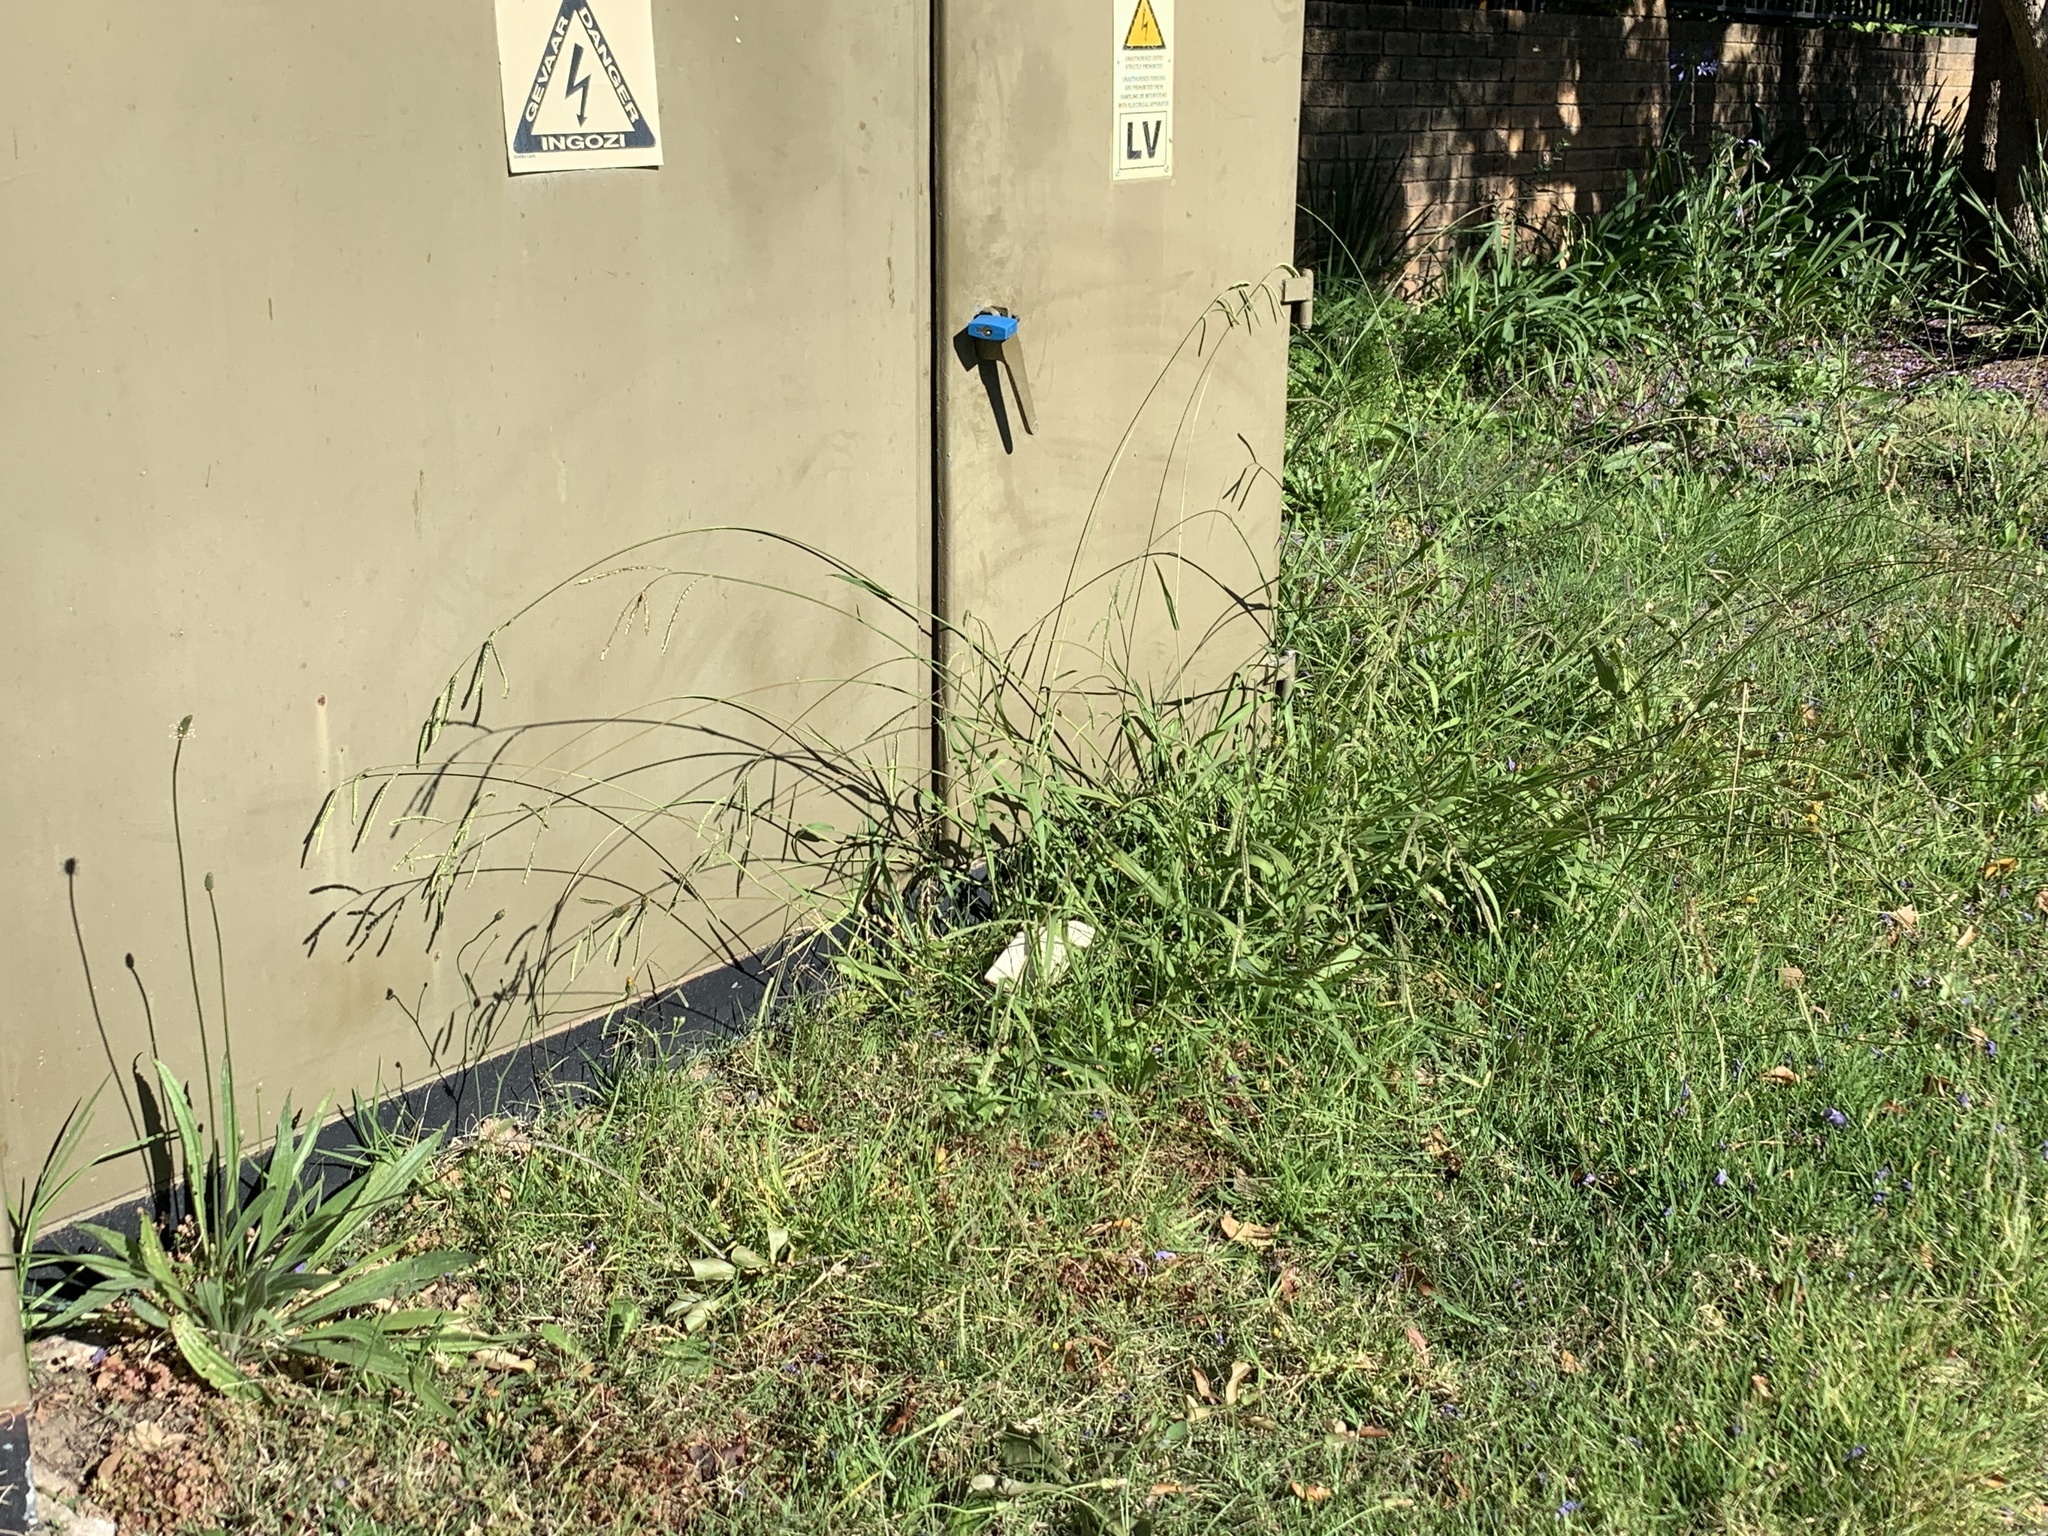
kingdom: Plantae
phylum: Tracheophyta
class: Liliopsida
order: Poales
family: Poaceae
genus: Paspalum
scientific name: Paspalum dilatatum
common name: Dallisgrass
